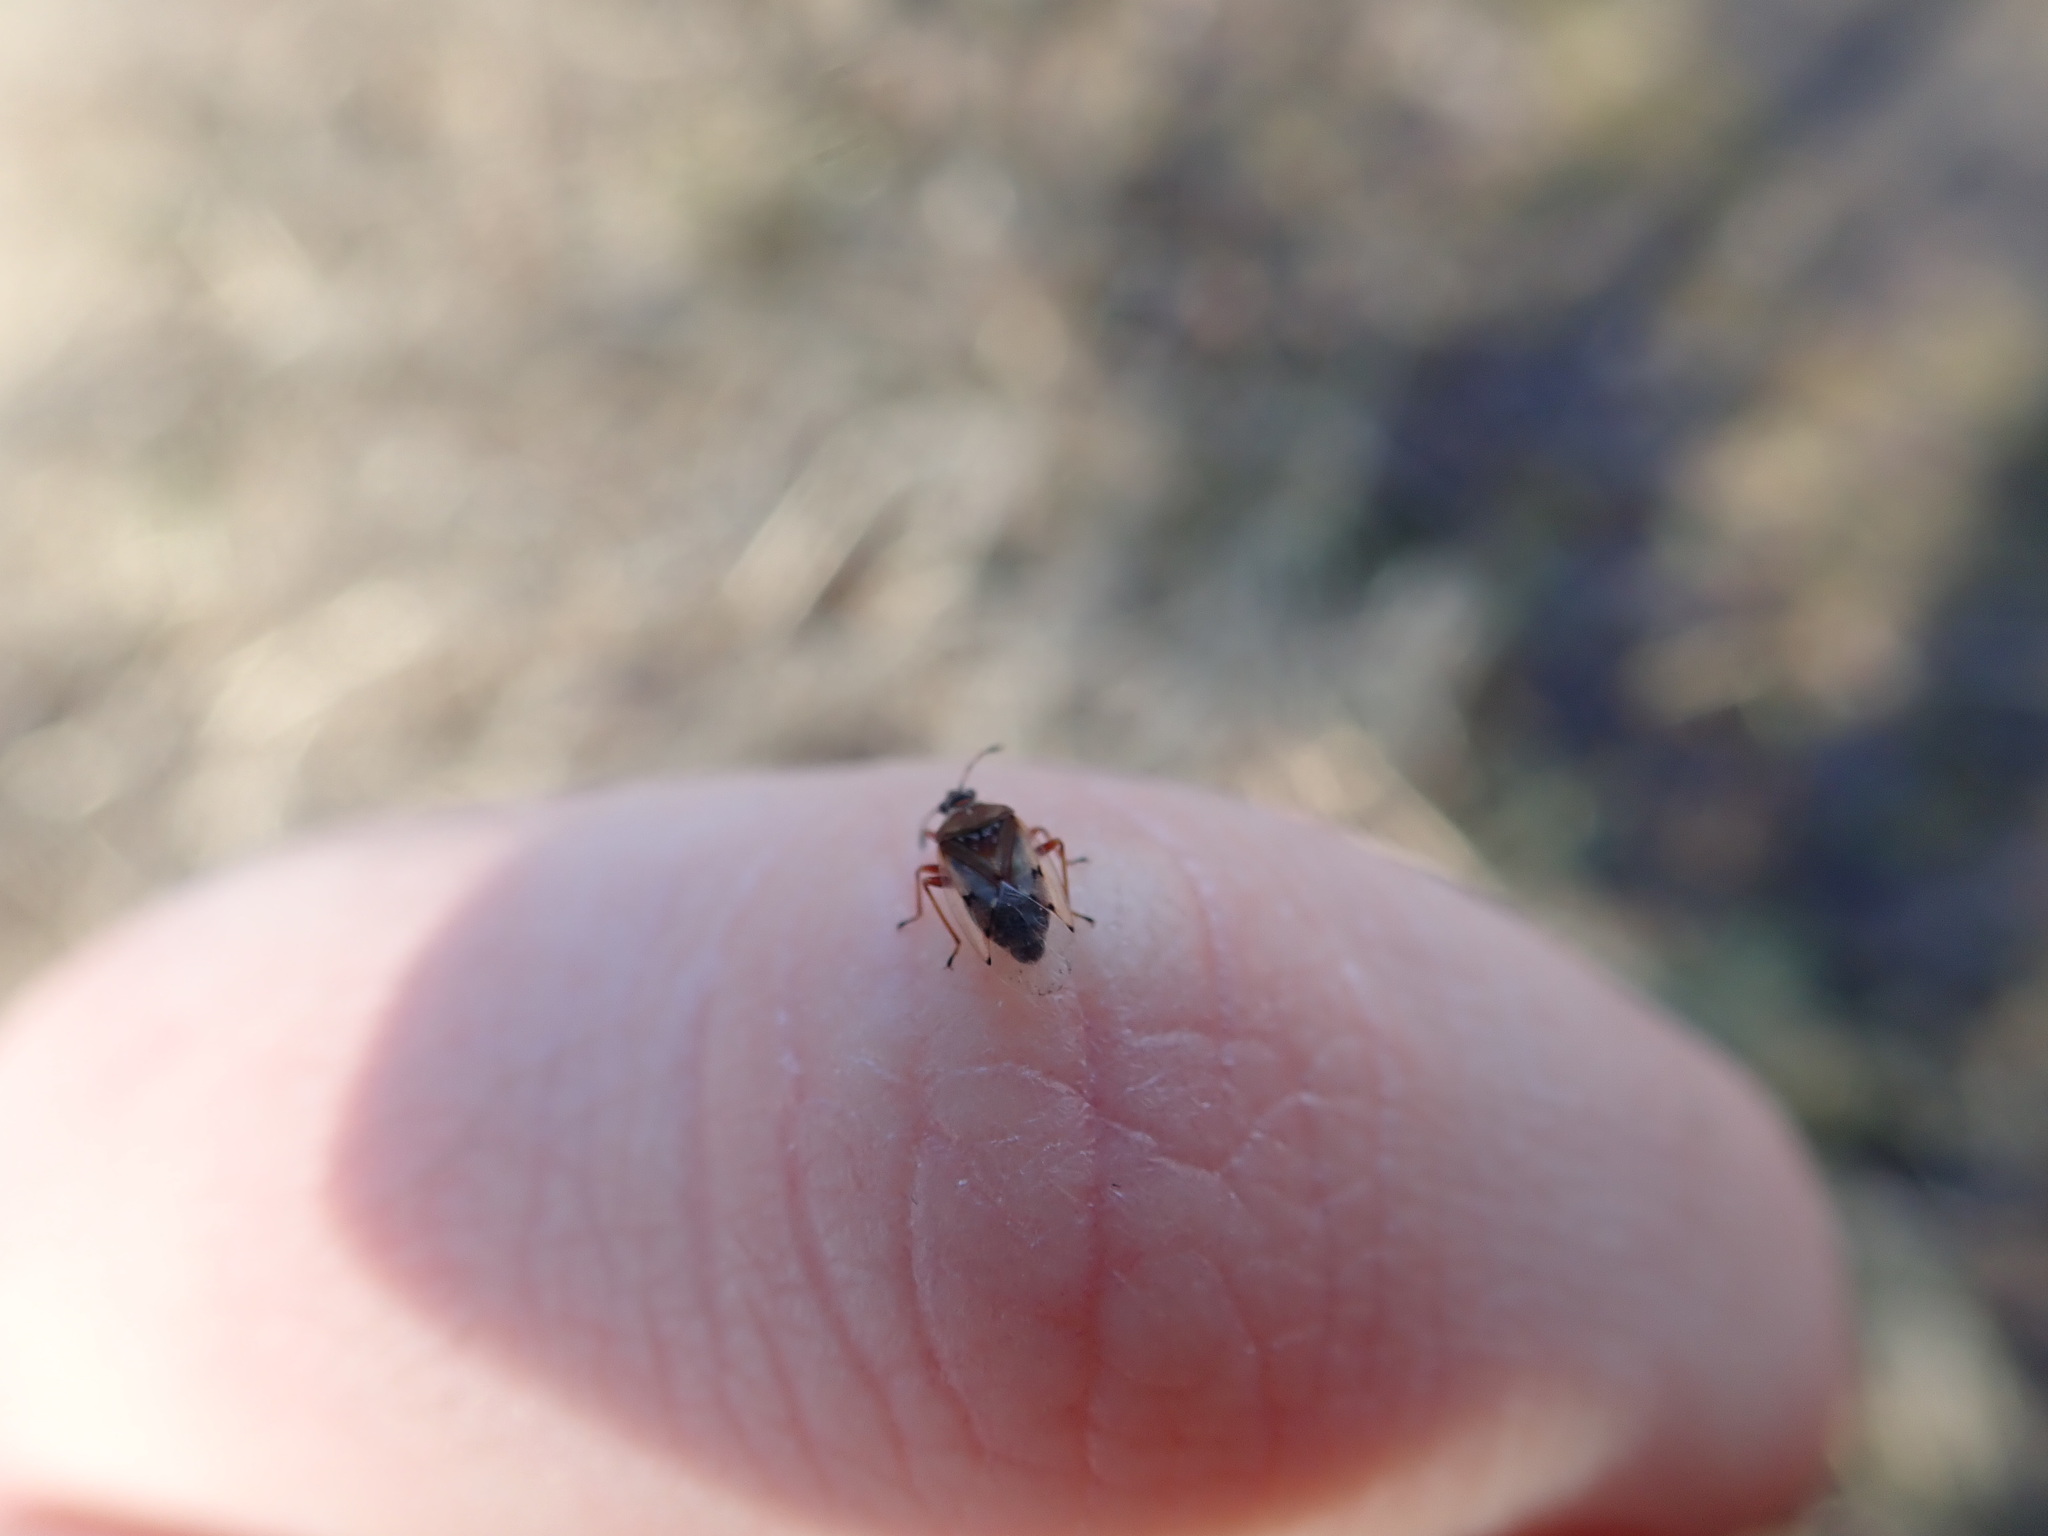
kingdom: Animalia
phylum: Arthropoda
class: Insecta
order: Hemiptera
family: Lygaeidae
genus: Kleidocerys
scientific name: Kleidocerys resedae
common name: Birch catkin bug
